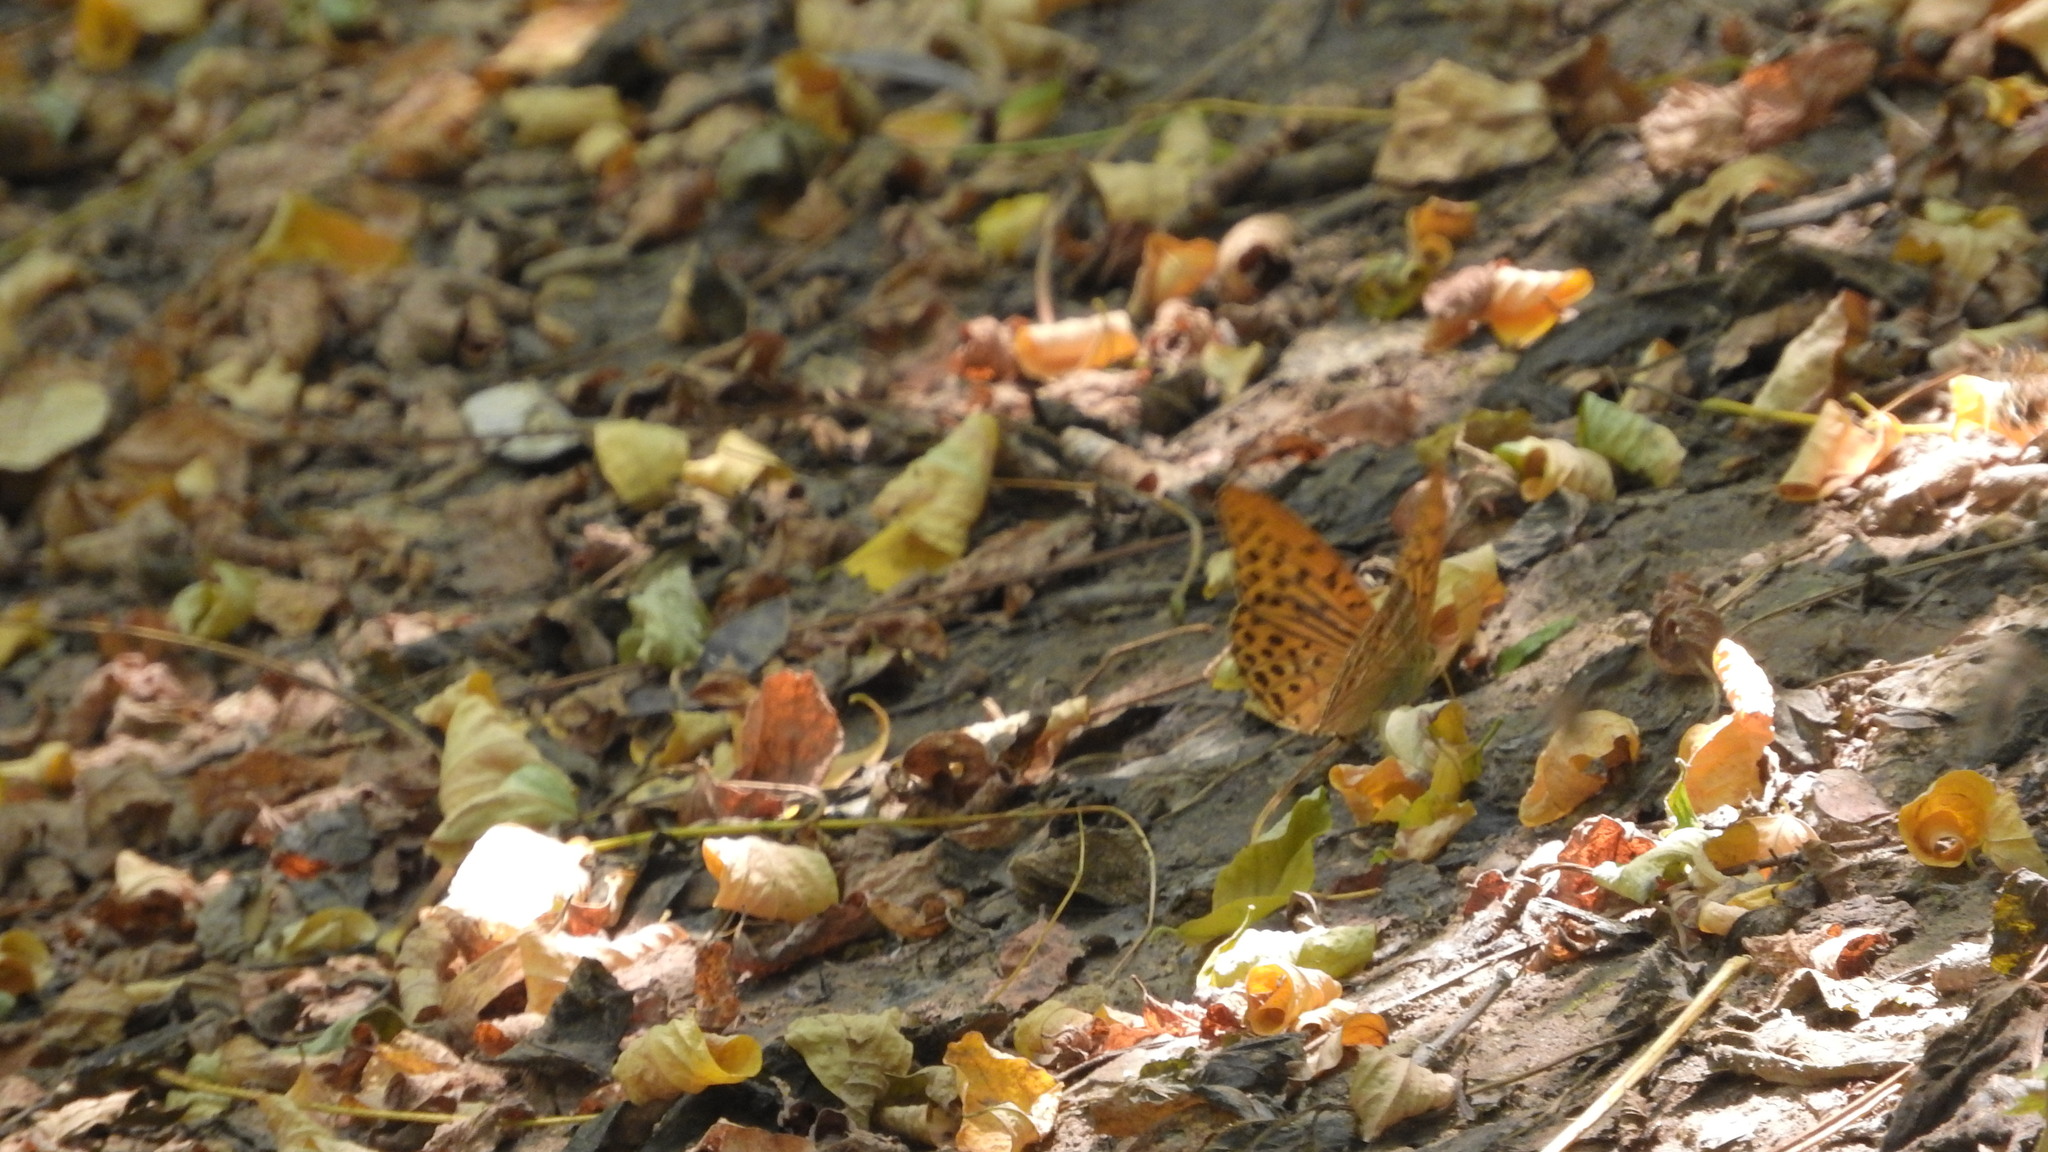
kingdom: Animalia
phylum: Arthropoda
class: Insecta
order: Lepidoptera
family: Nymphalidae
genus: Argynnis
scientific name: Argynnis paphia
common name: Silver-washed fritillary
